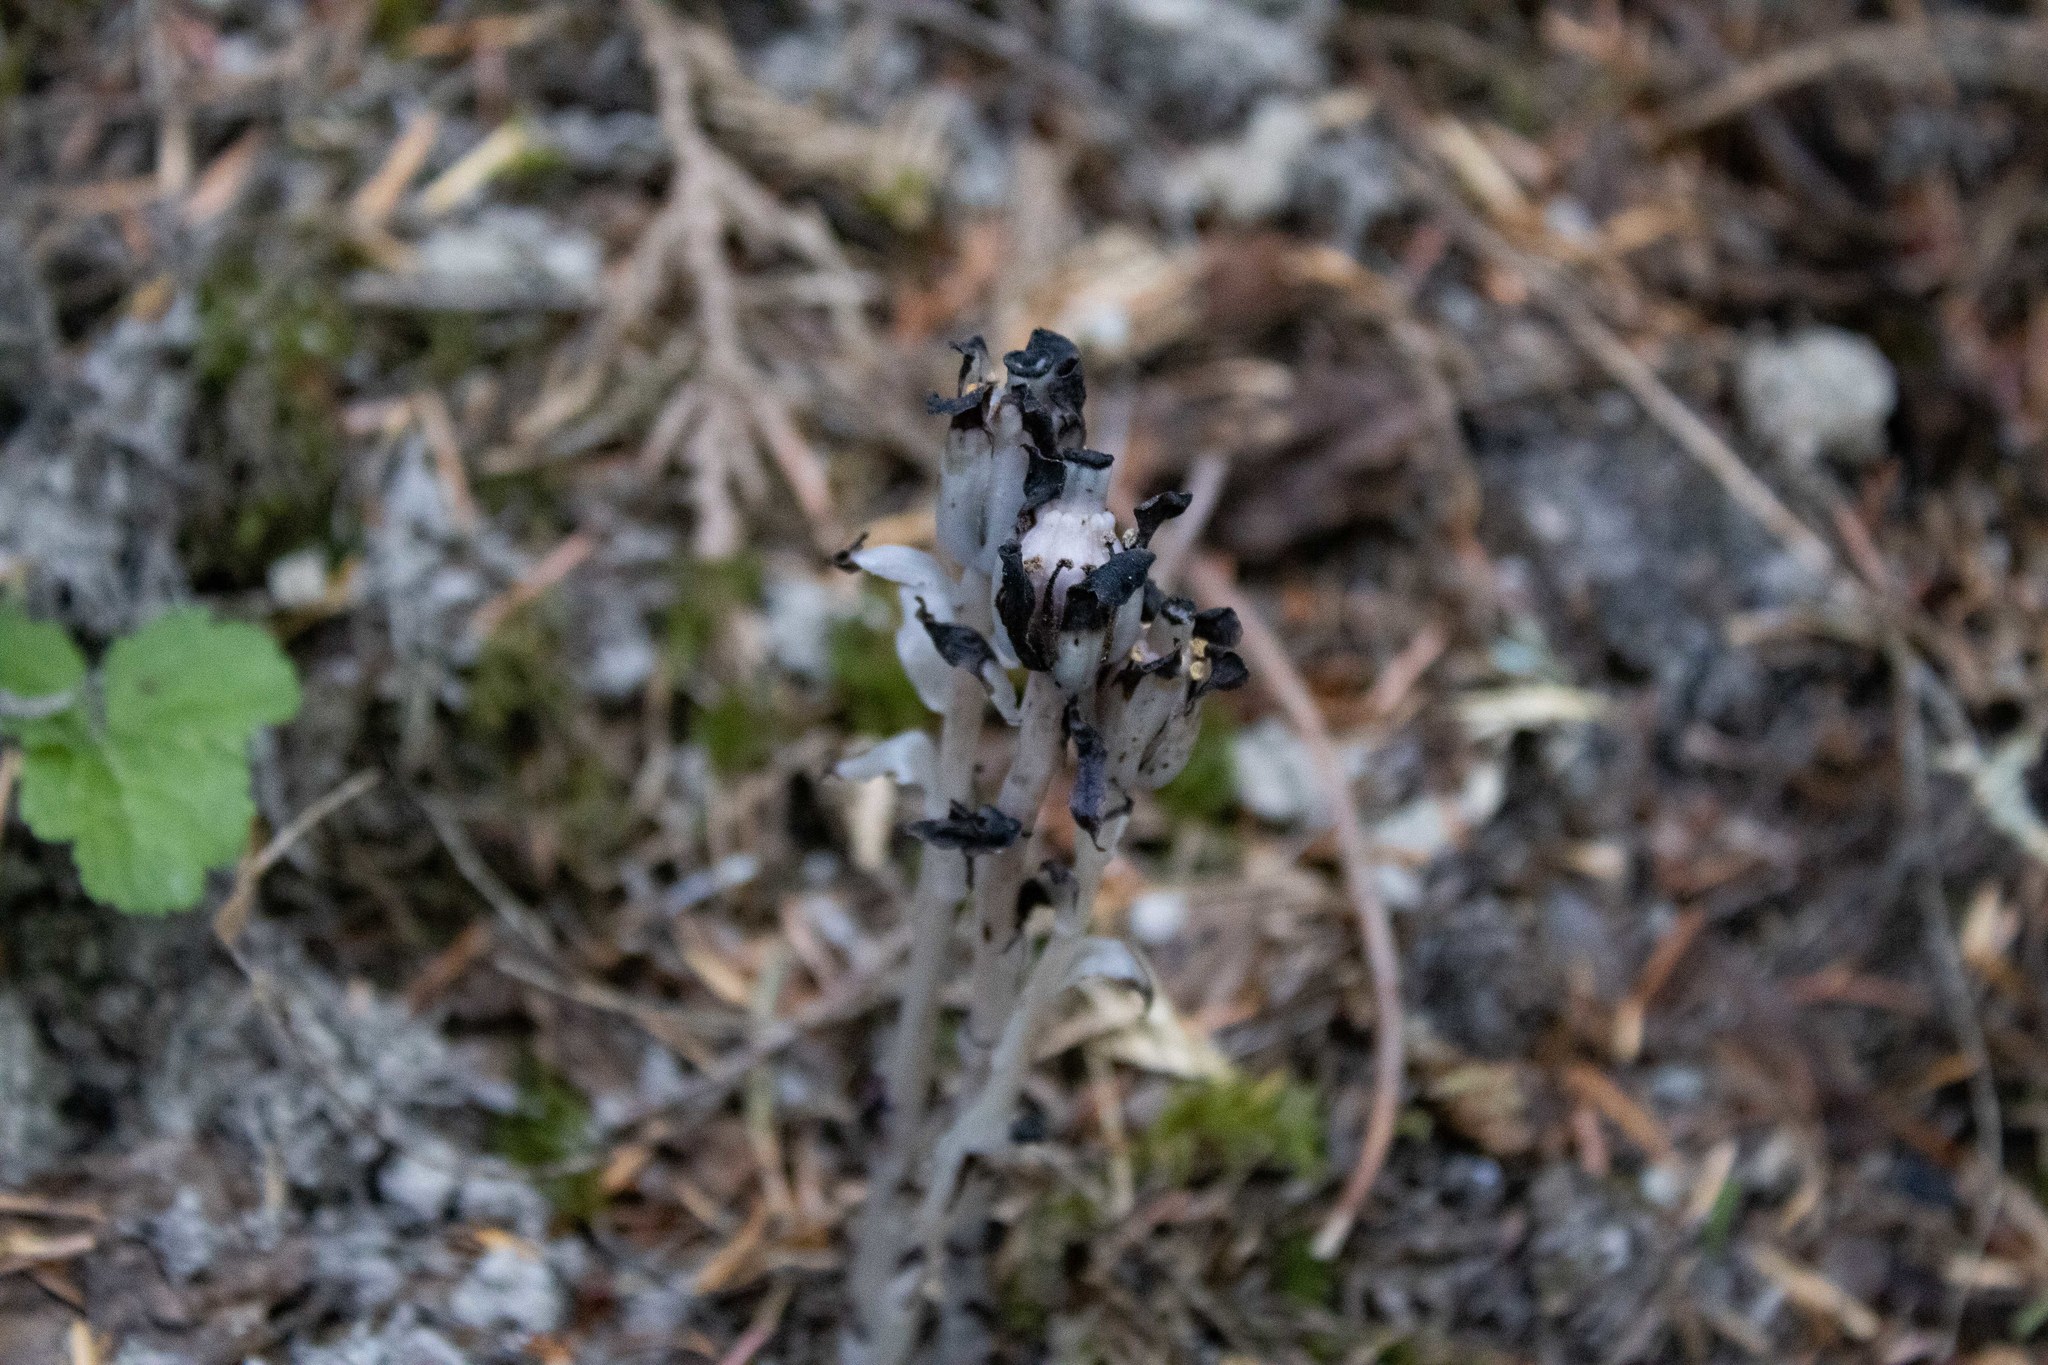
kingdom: Plantae
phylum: Tracheophyta
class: Magnoliopsida
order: Ericales
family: Ericaceae
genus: Monotropa
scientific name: Monotropa uniflora
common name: Convulsion root
